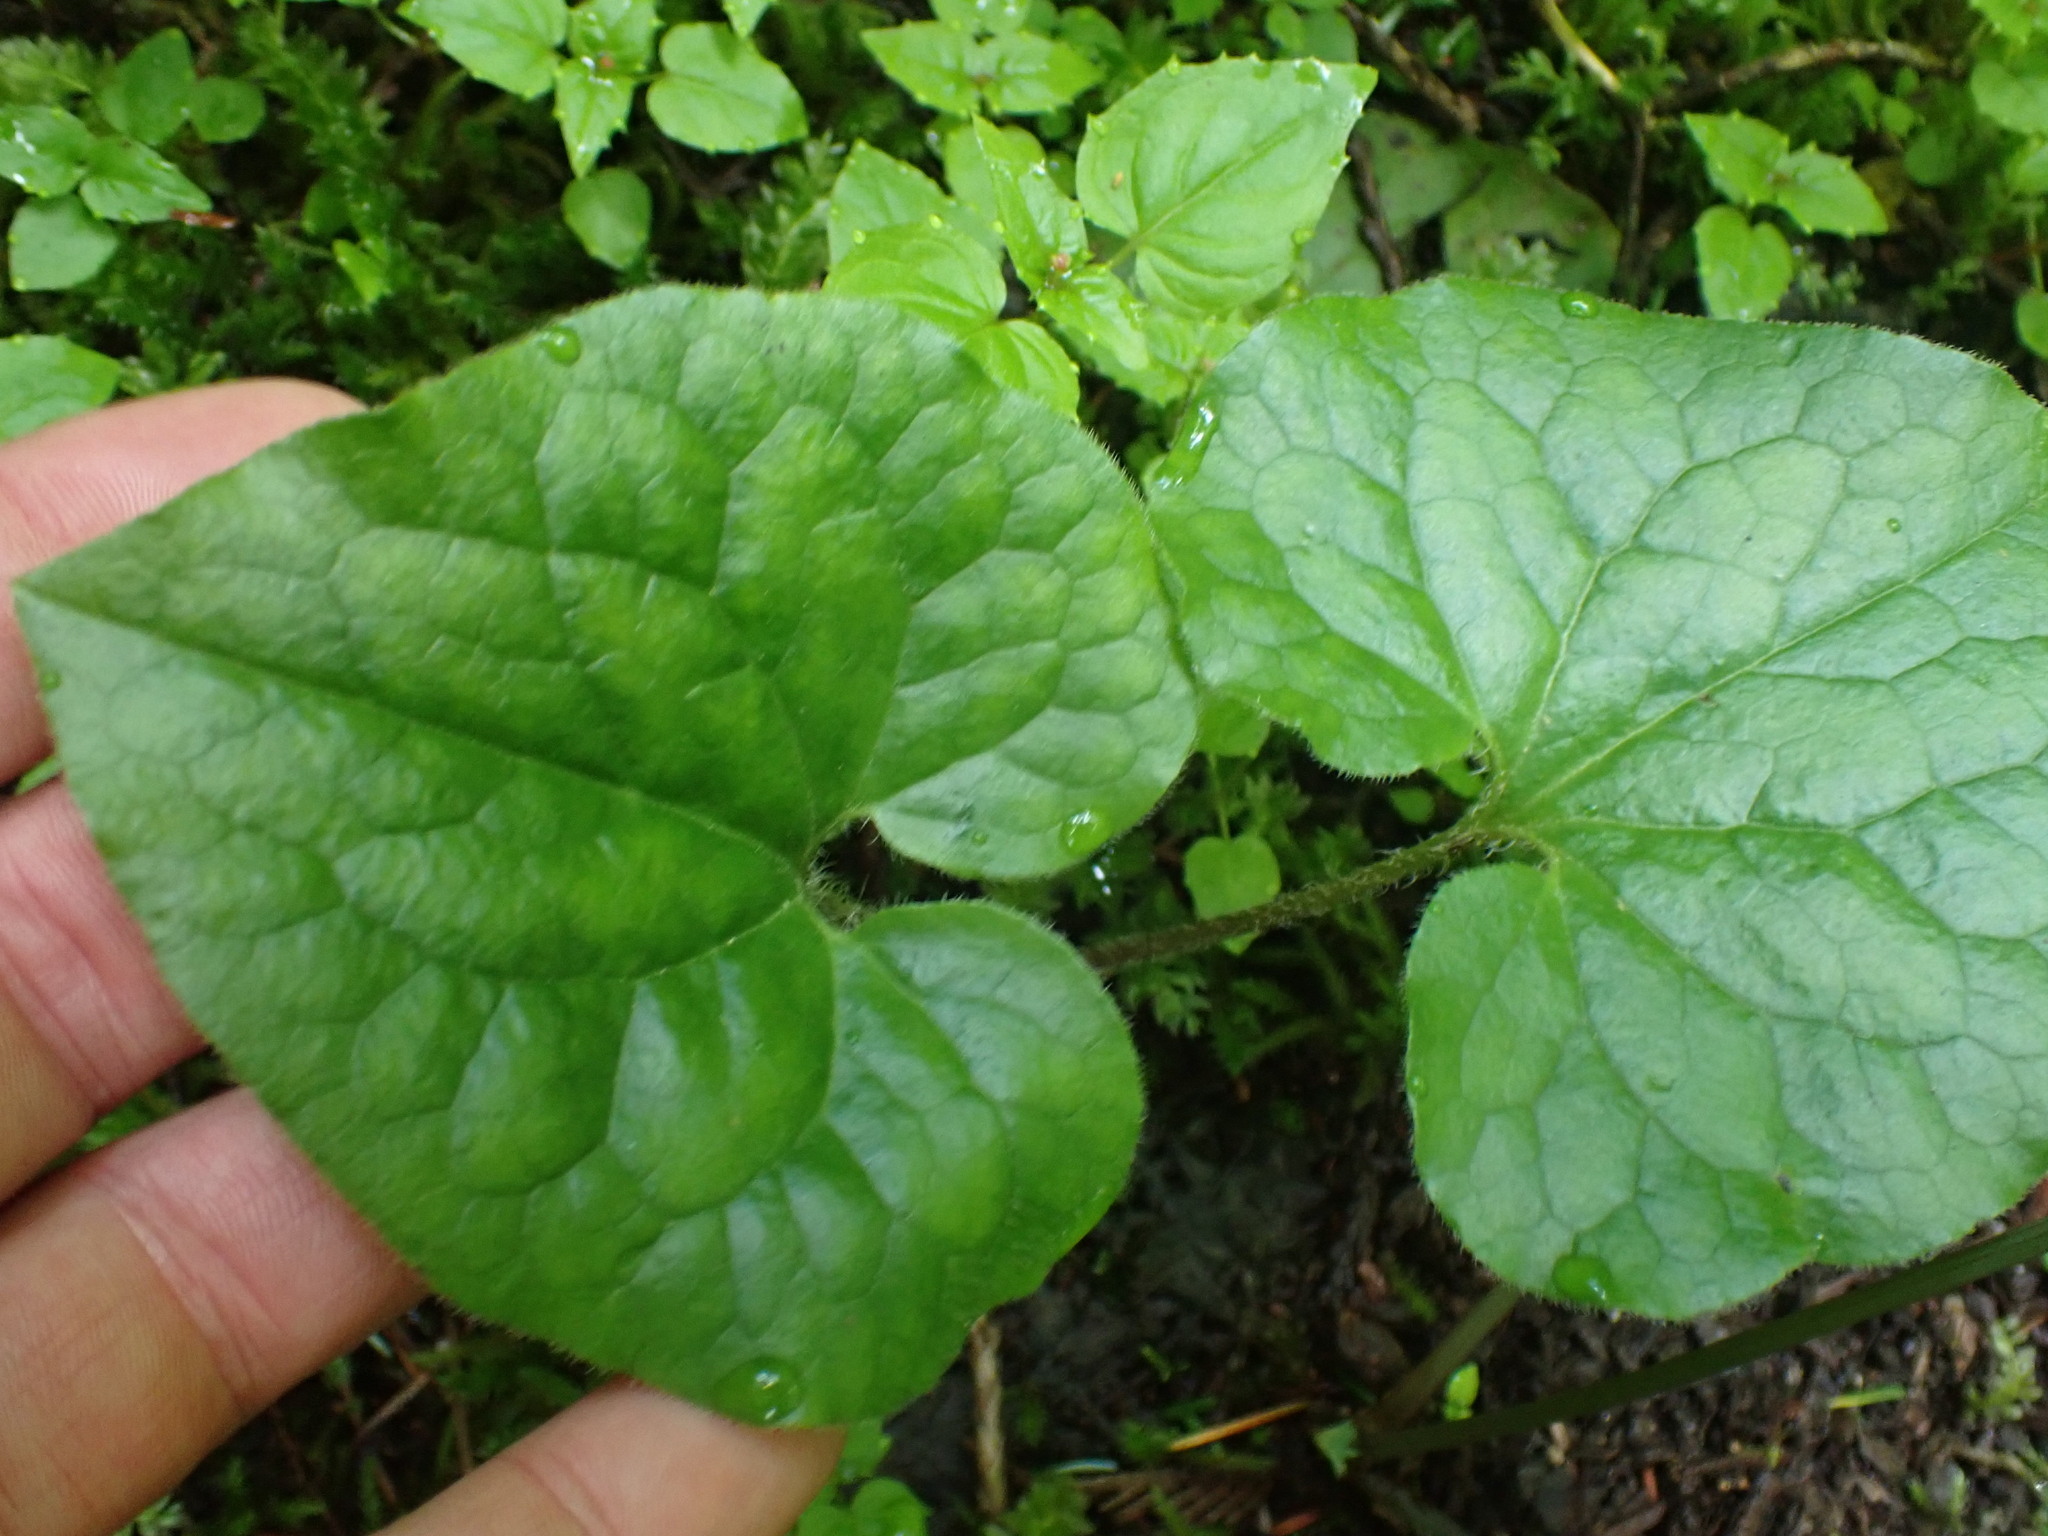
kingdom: Plantae
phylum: Tracheophyta
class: Magnoliopsida
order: Piperales
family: Aristolochiaceae
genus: Asarum
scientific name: Asarum caudatum
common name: Wild ginger
